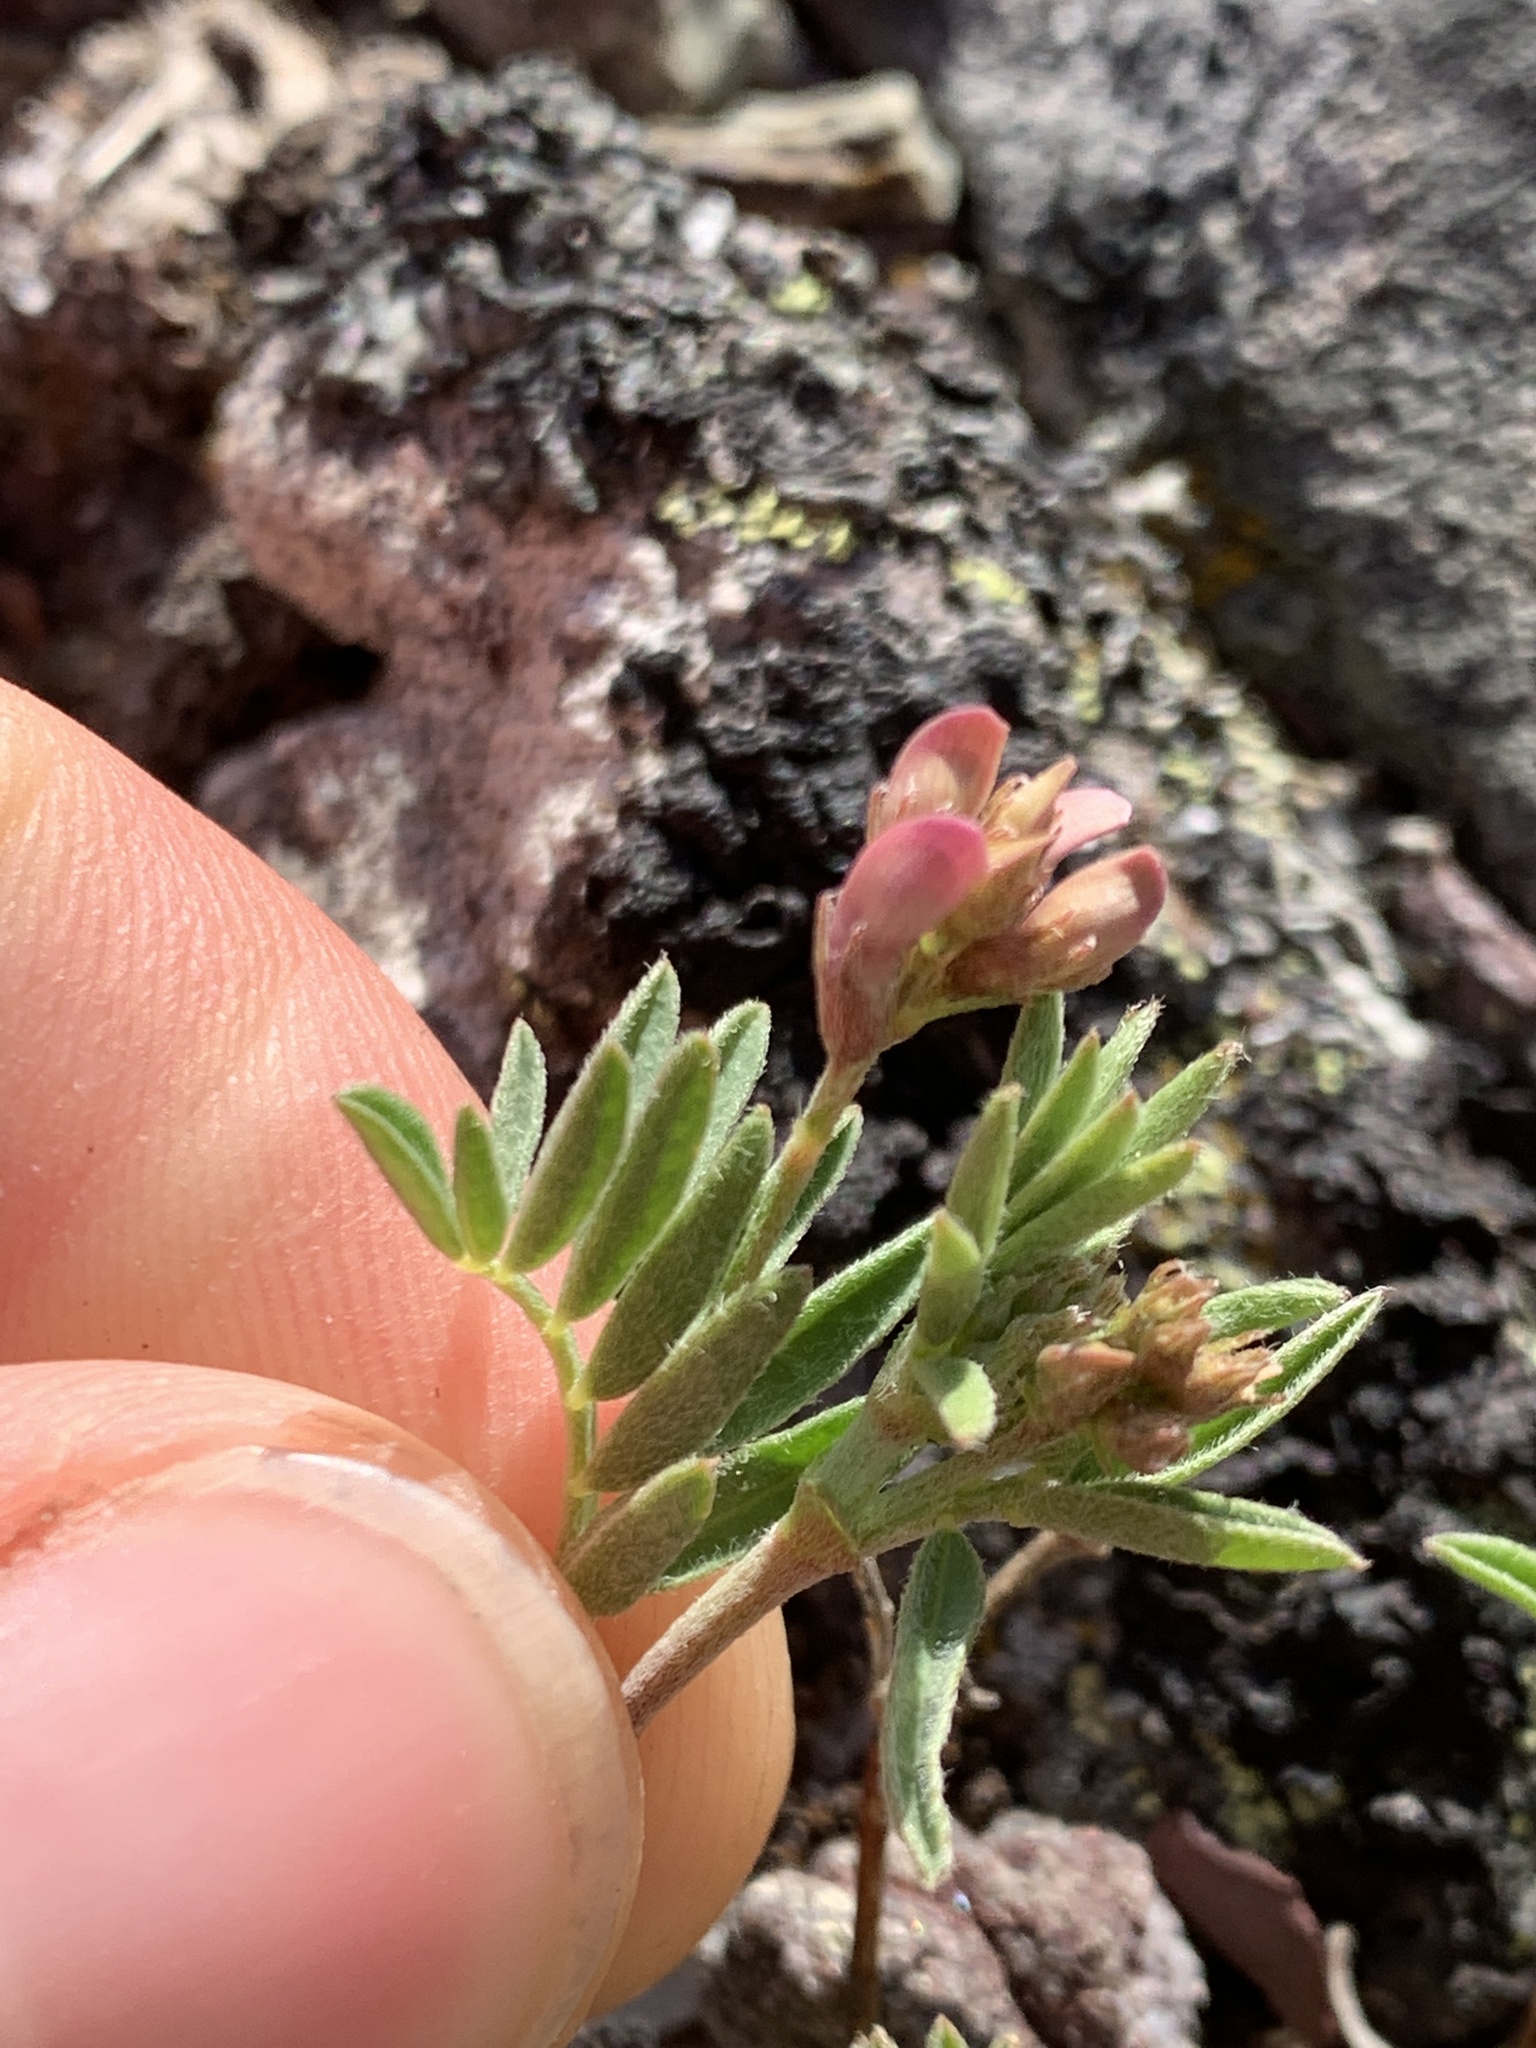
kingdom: Plantae
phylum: Tracheophyta
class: Magnoliopsida
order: Fabales
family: Fabaceae
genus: Astragalus
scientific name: Astragalus vexilliflexus
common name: Bent-flowered milk-vetch
